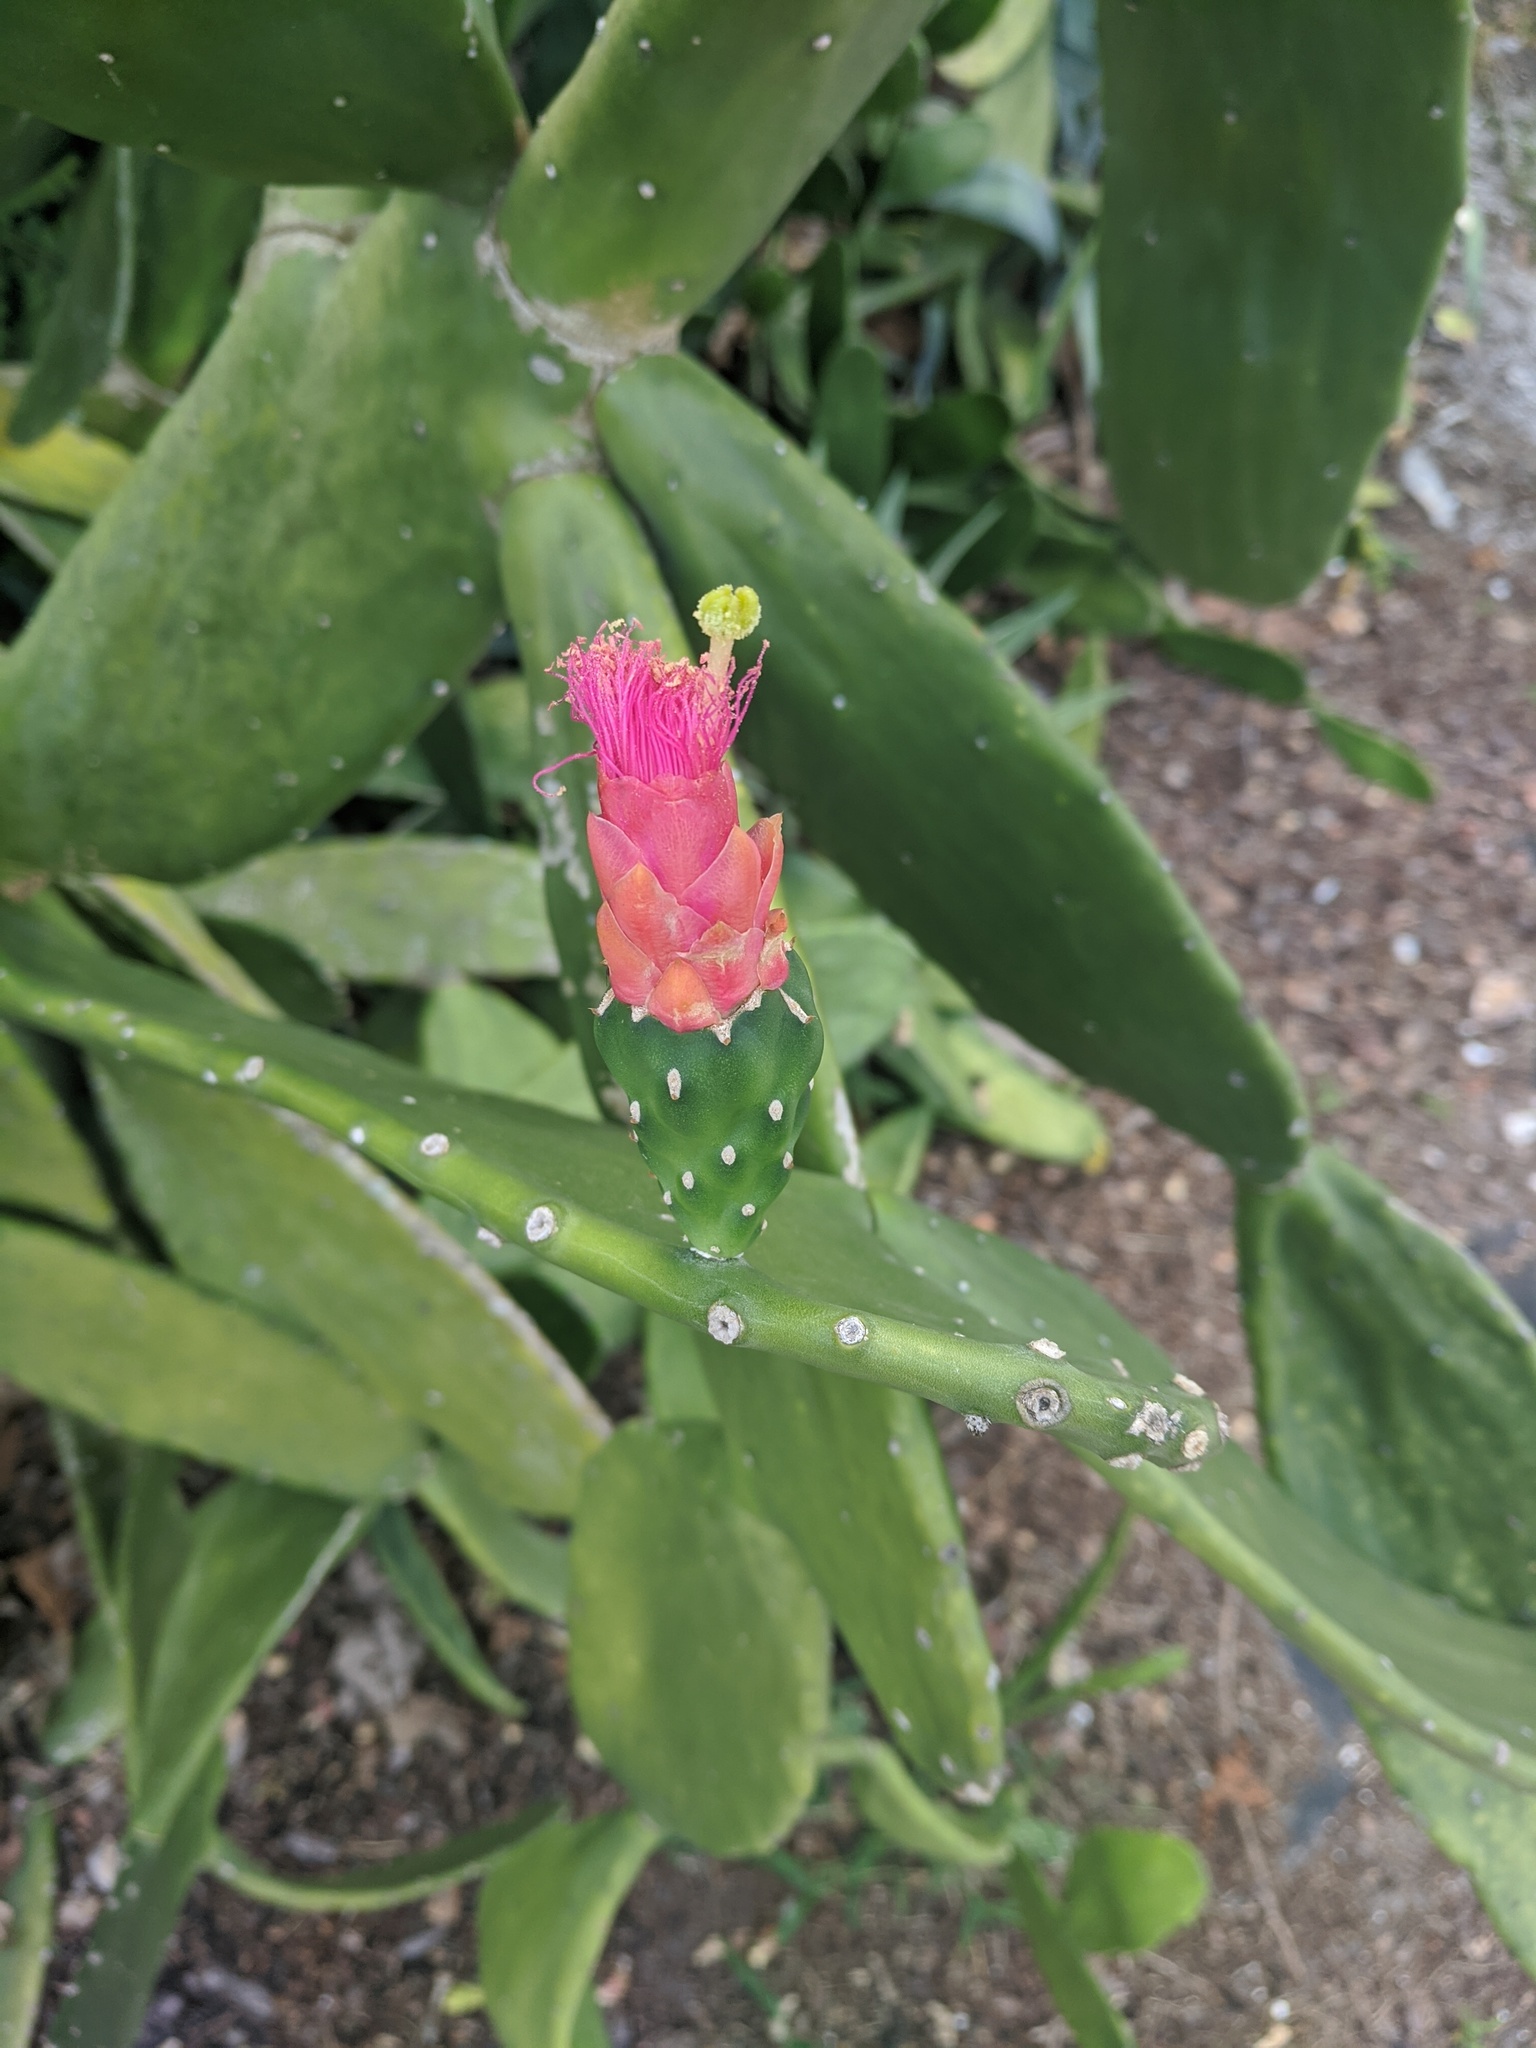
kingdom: Plantae
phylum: Tracheophyta
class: Magnoliopsida
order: Caryophyllales
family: Cactaceae
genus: Opuntia
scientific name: Opuntia cochenillifera
